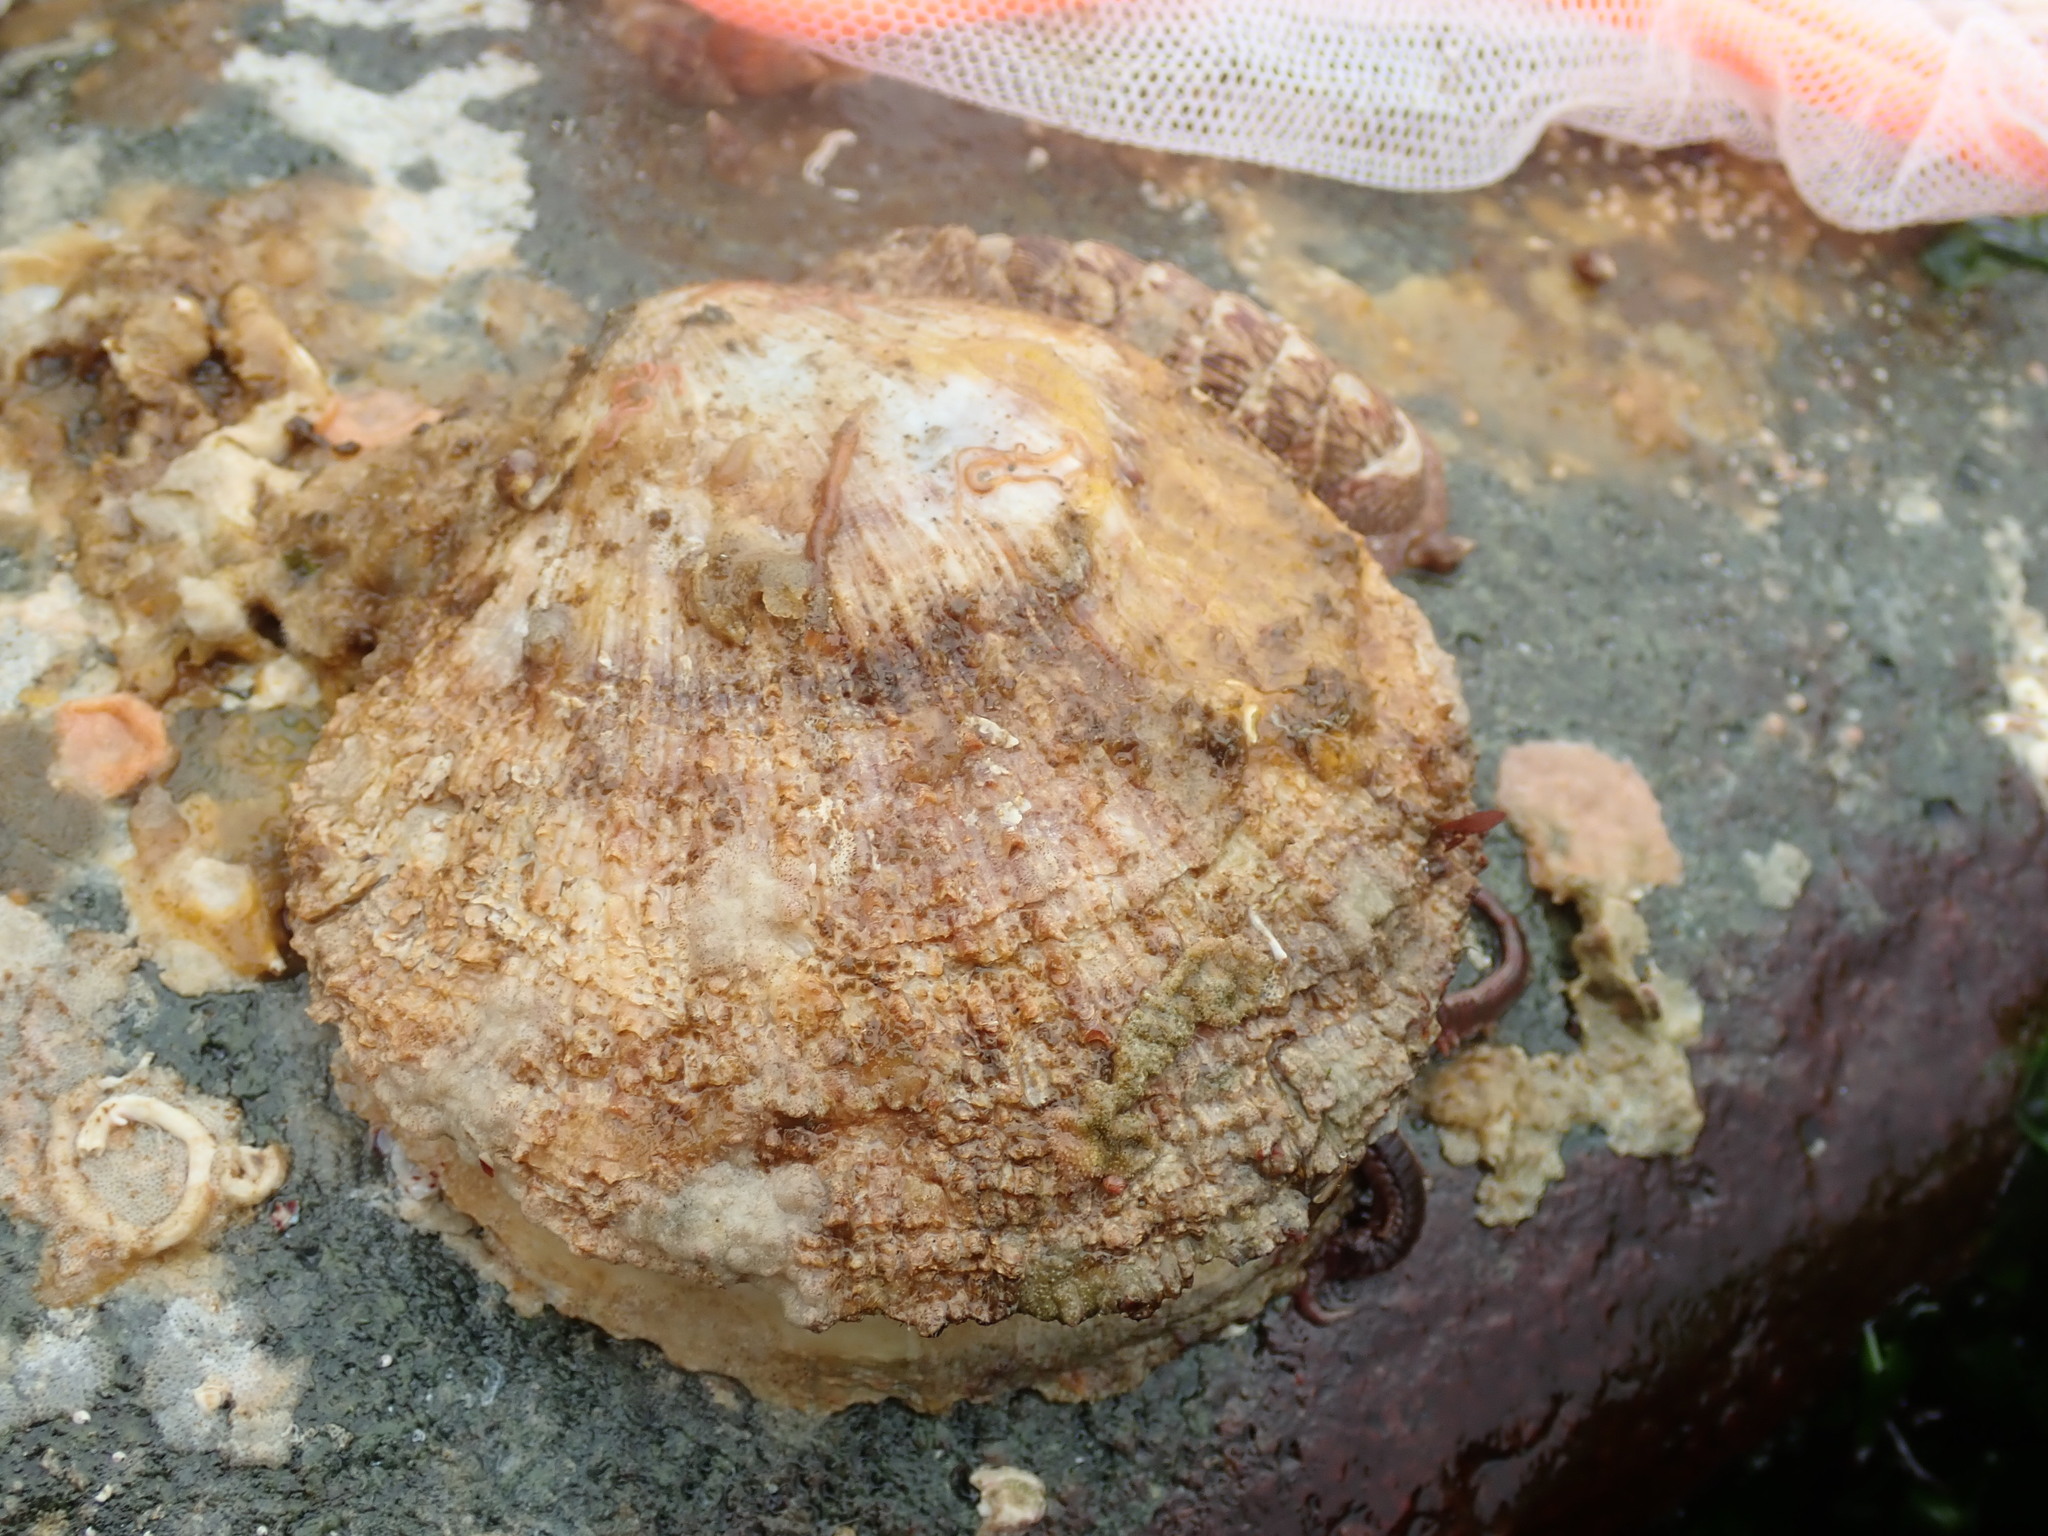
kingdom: Animalia
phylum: Mollusca
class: Bivalvia
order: Pectinida
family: Pectinidae
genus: Crassadoma
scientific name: Crassadoma gigantea
